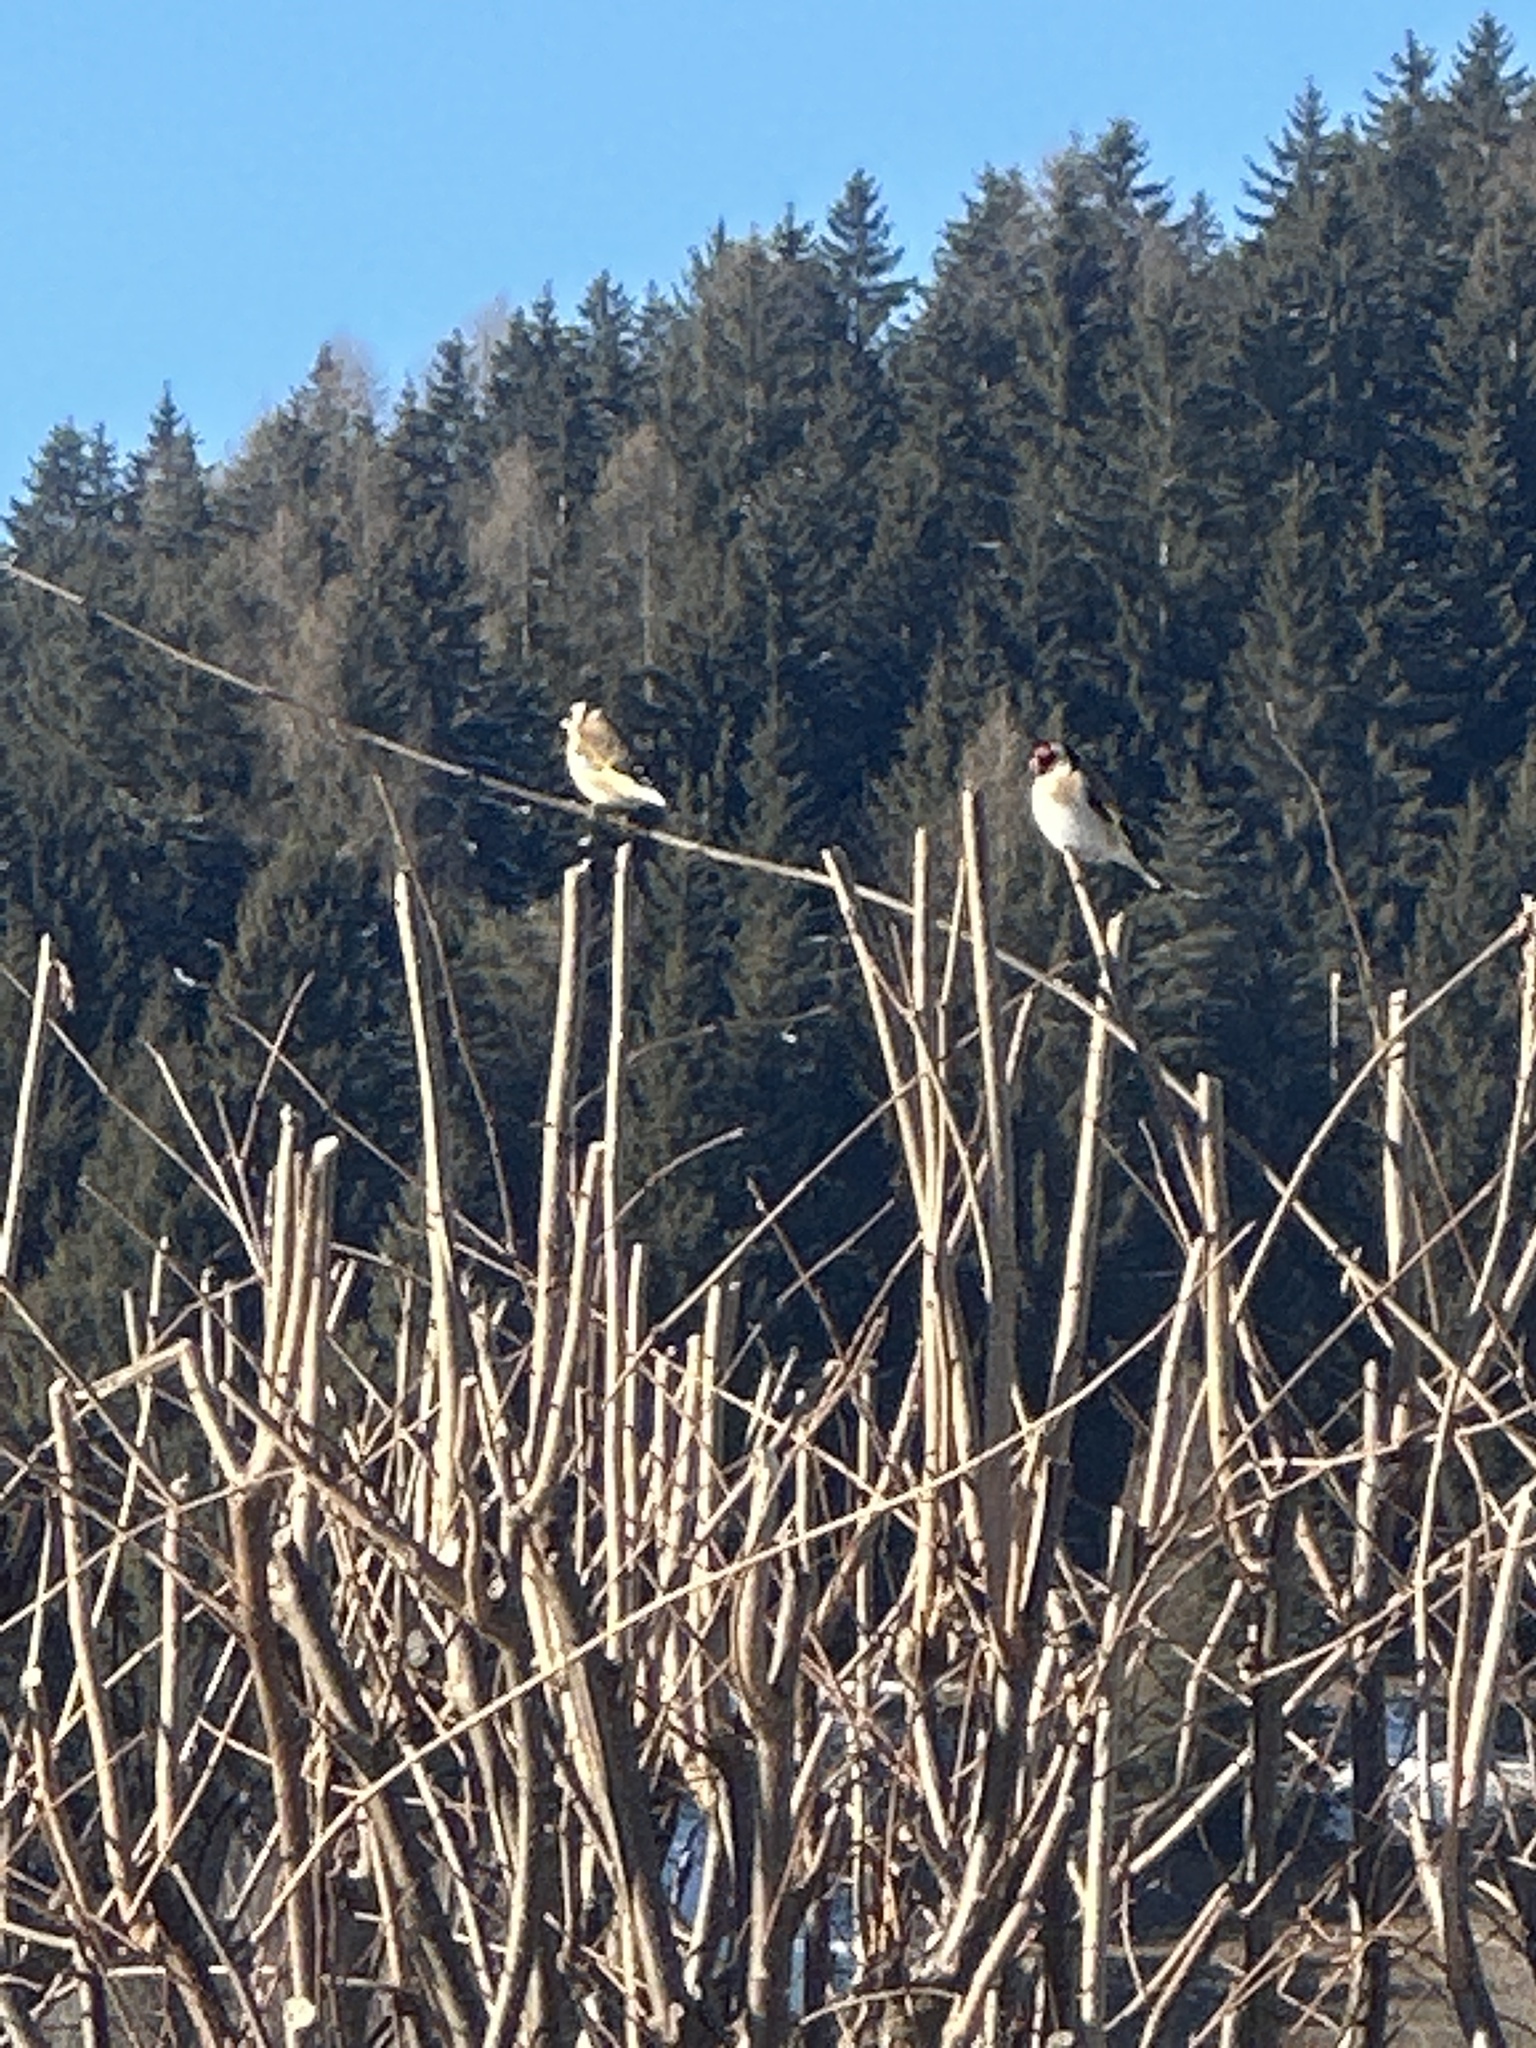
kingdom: Animalia
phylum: Chordata
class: Aves
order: Passeriformes
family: Fringillidae
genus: Carduelis
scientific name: Carduelis carduelis
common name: European goldfinch
